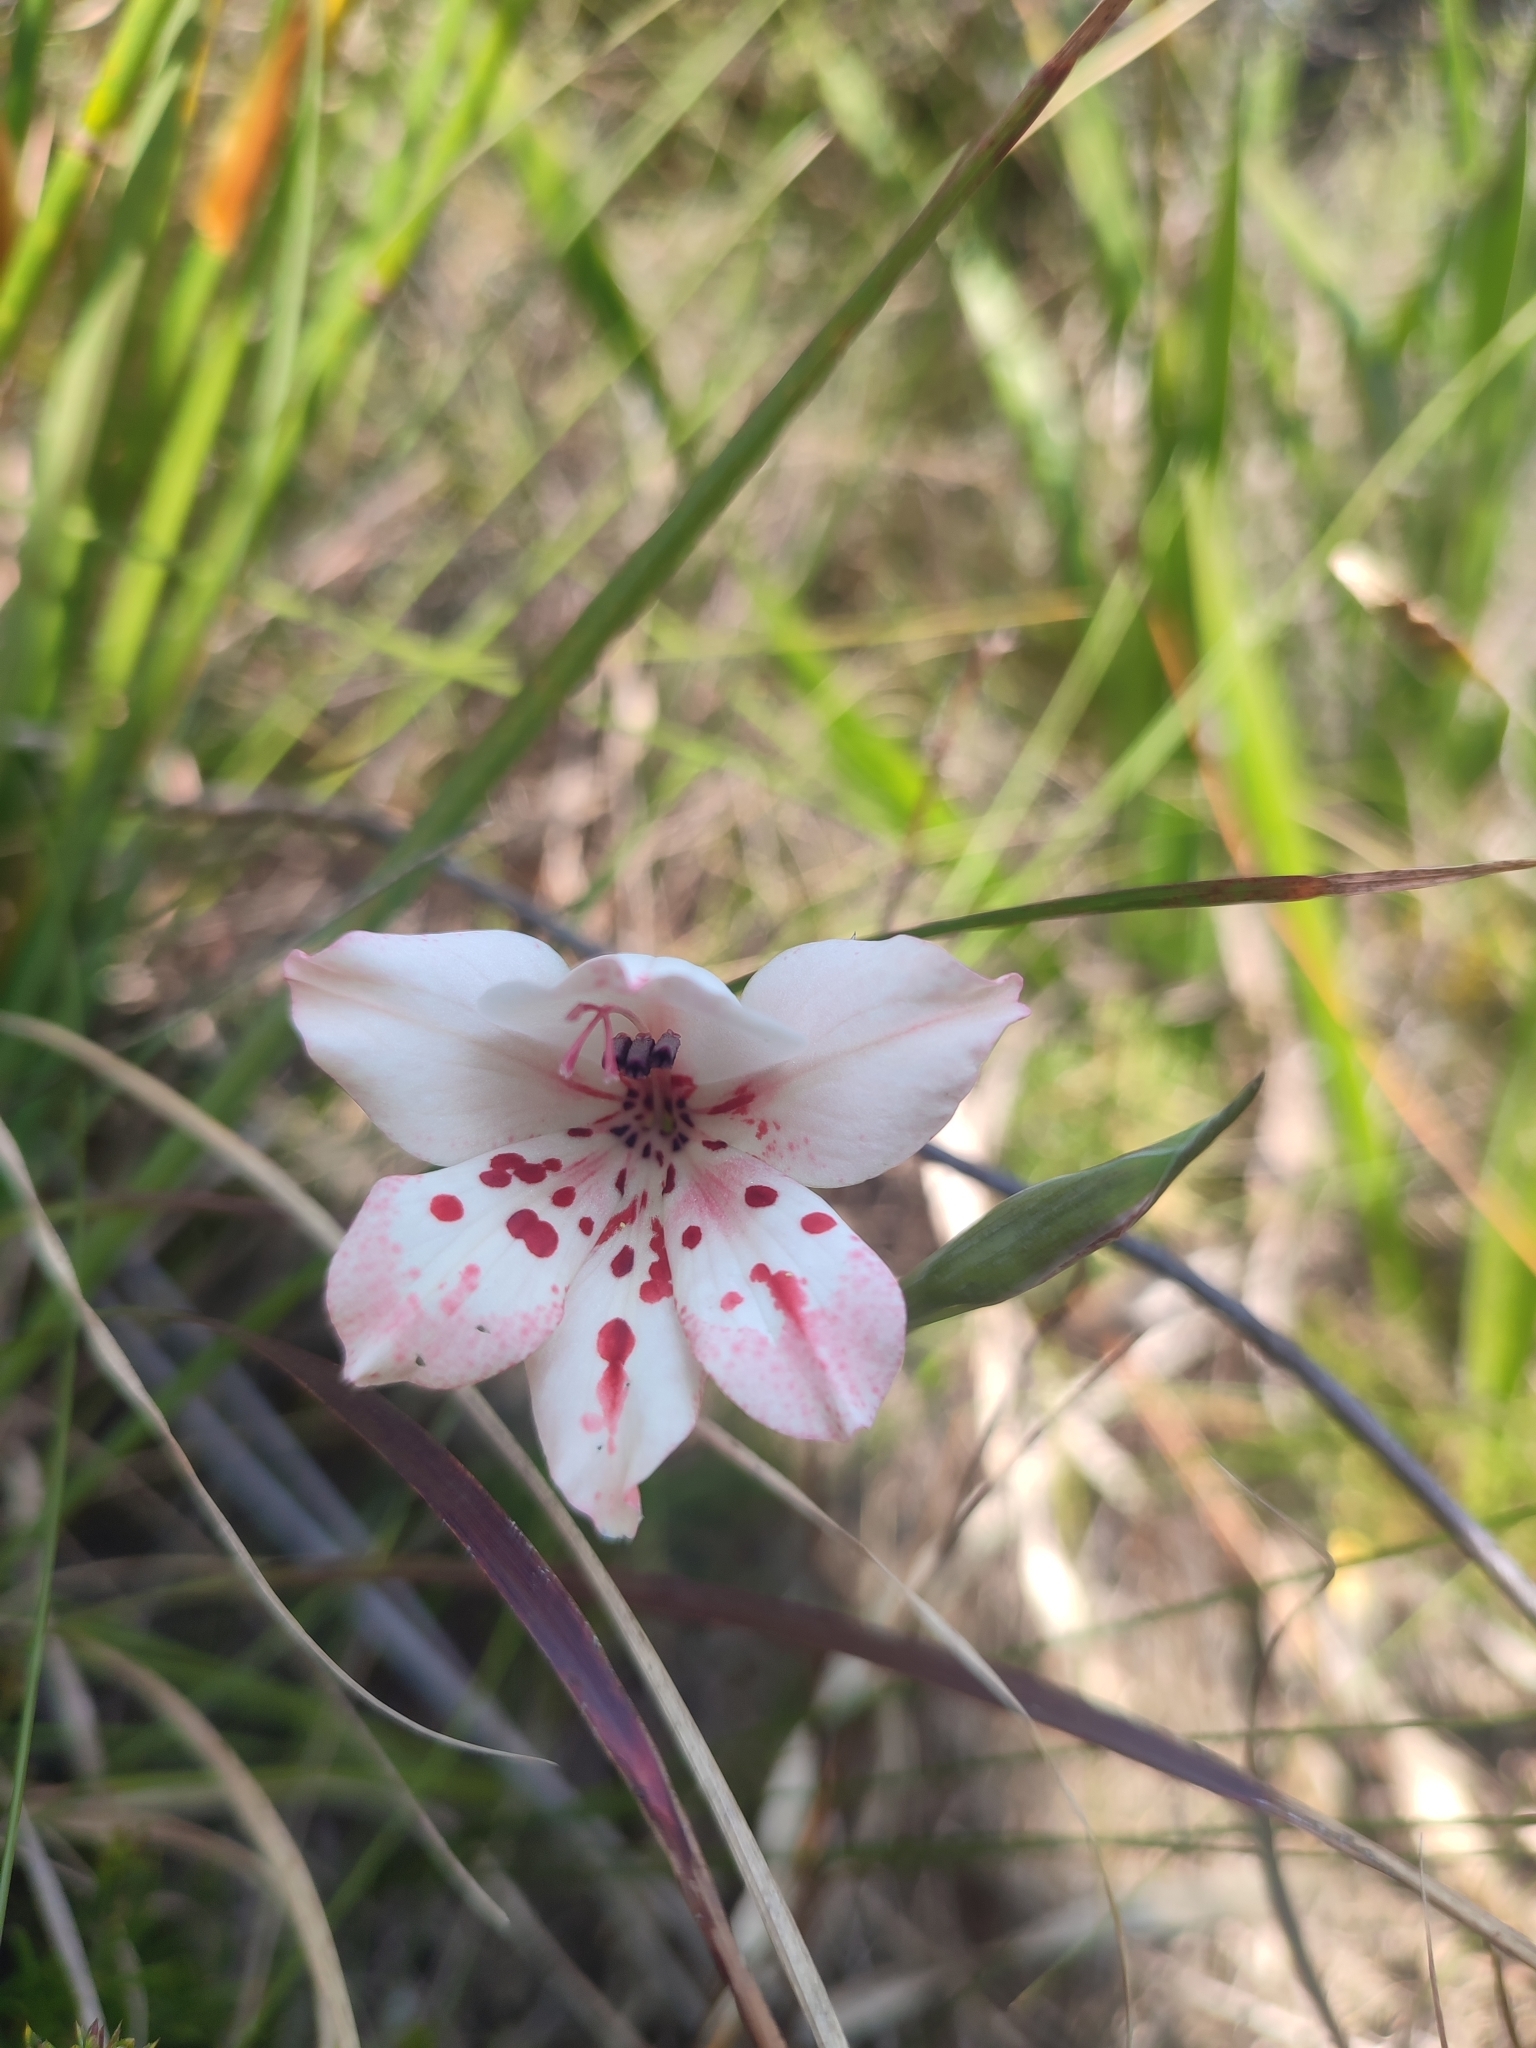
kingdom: Plantae
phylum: Tracheophyta
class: Liliopsida
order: Asparagales
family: Iridaceae
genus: Gladiolus
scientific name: Gladiolus variegatus
